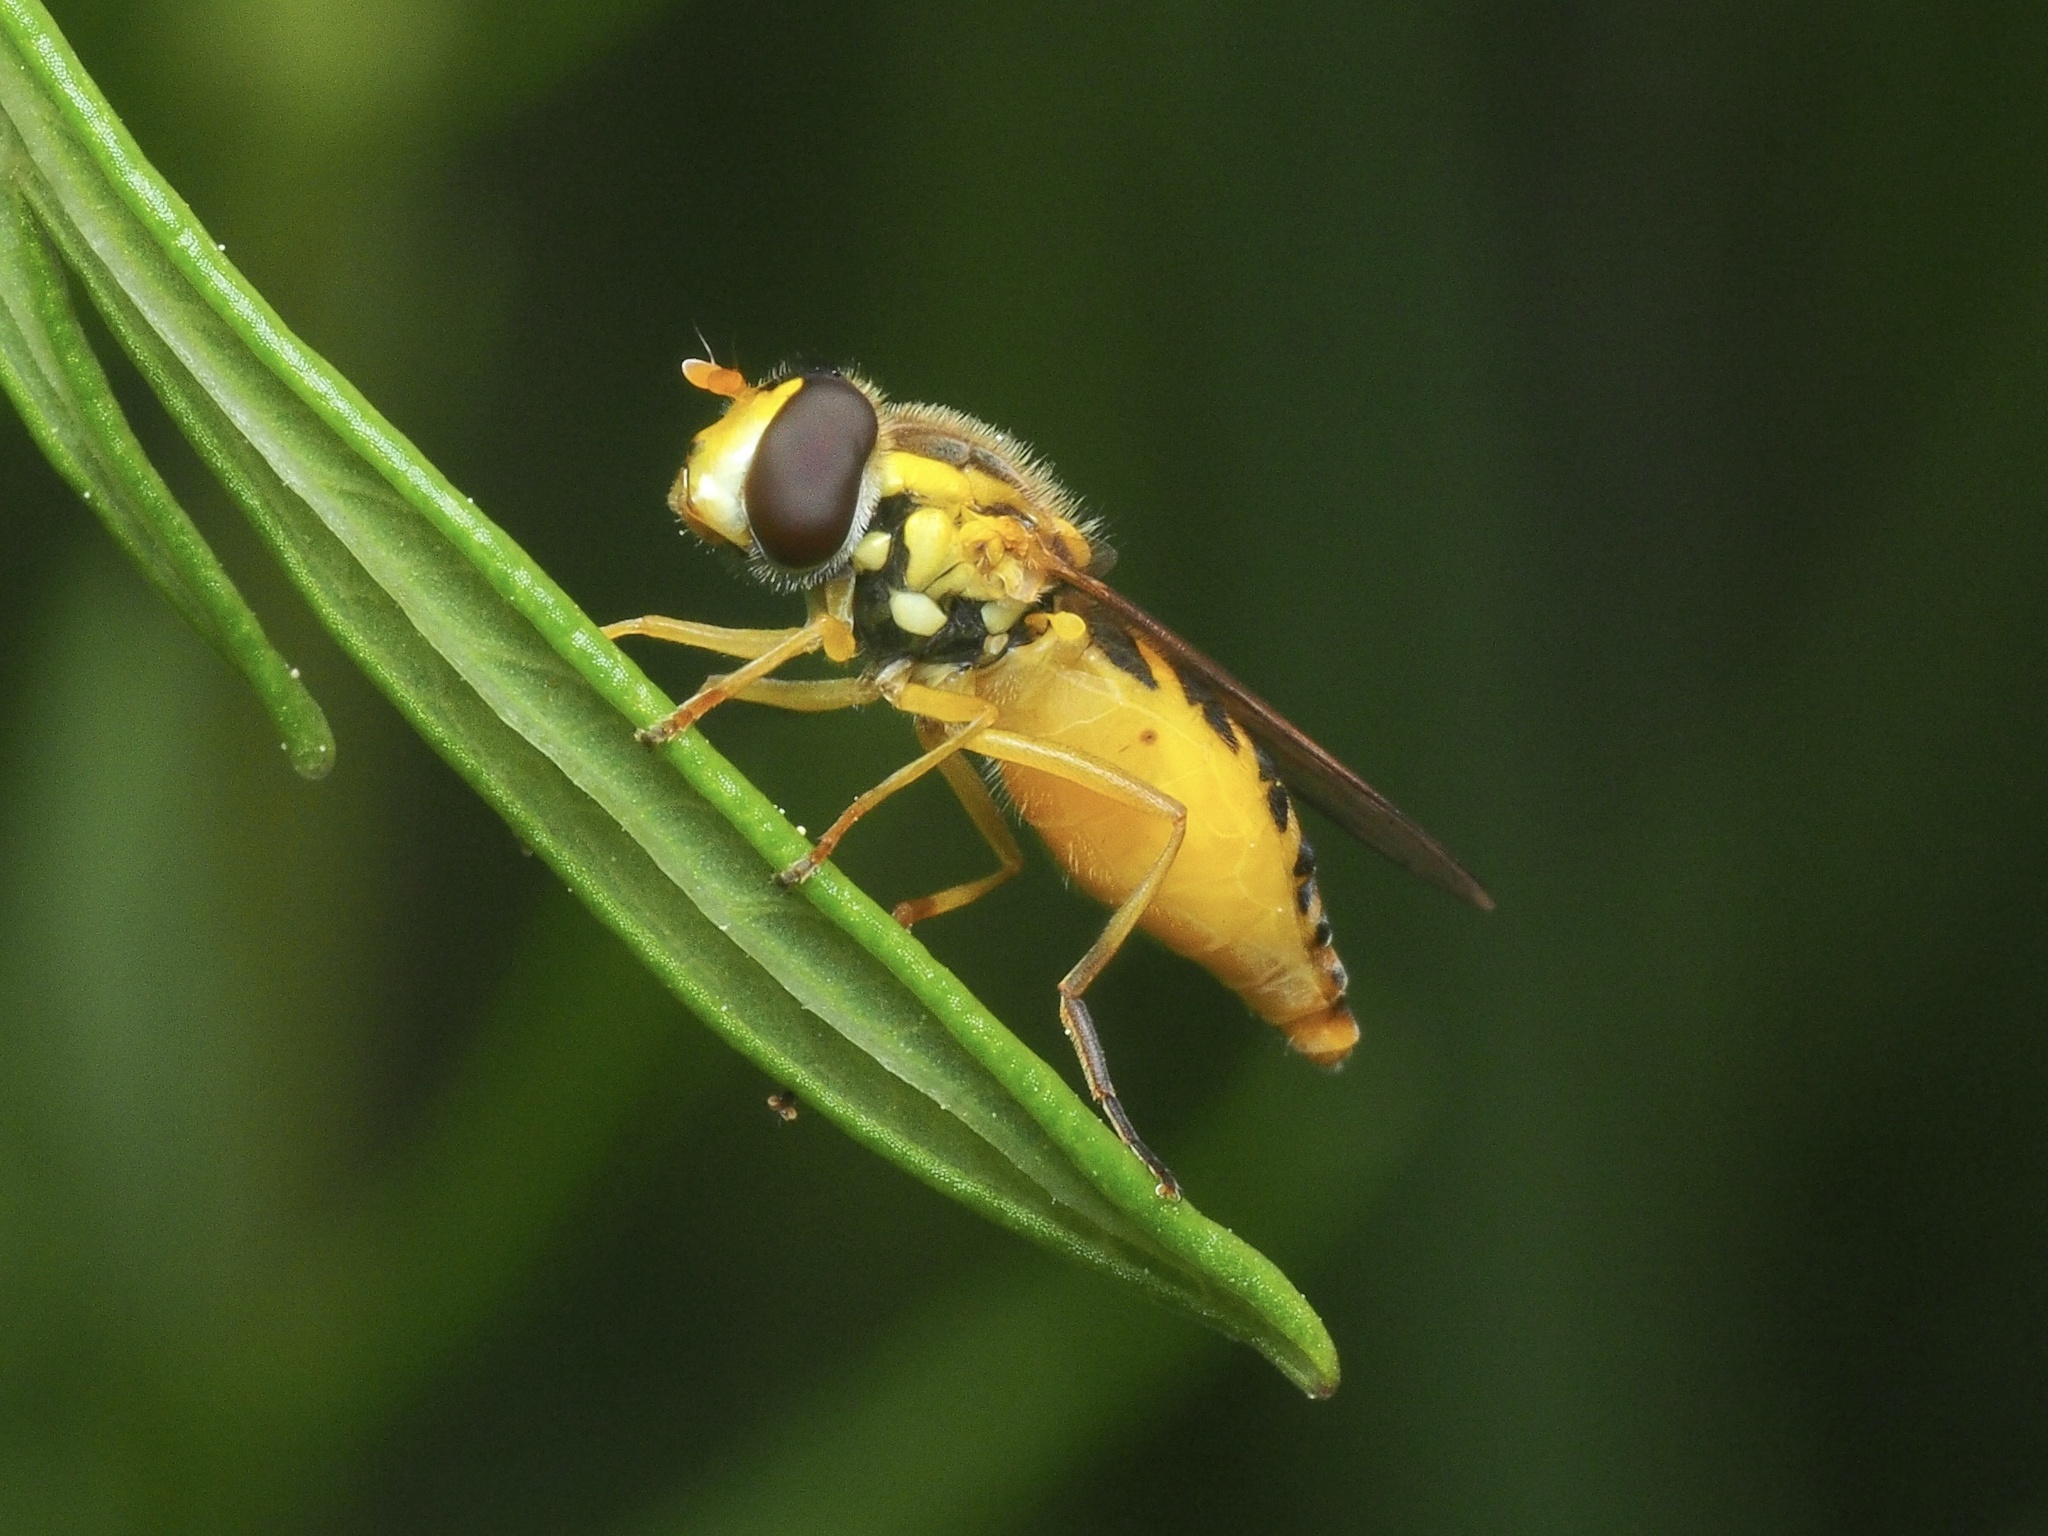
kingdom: Animalia
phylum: Arthropoda
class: Insecta
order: Diptera
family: Syrphidae
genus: Sphaerophoria
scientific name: Sphaerophoria
